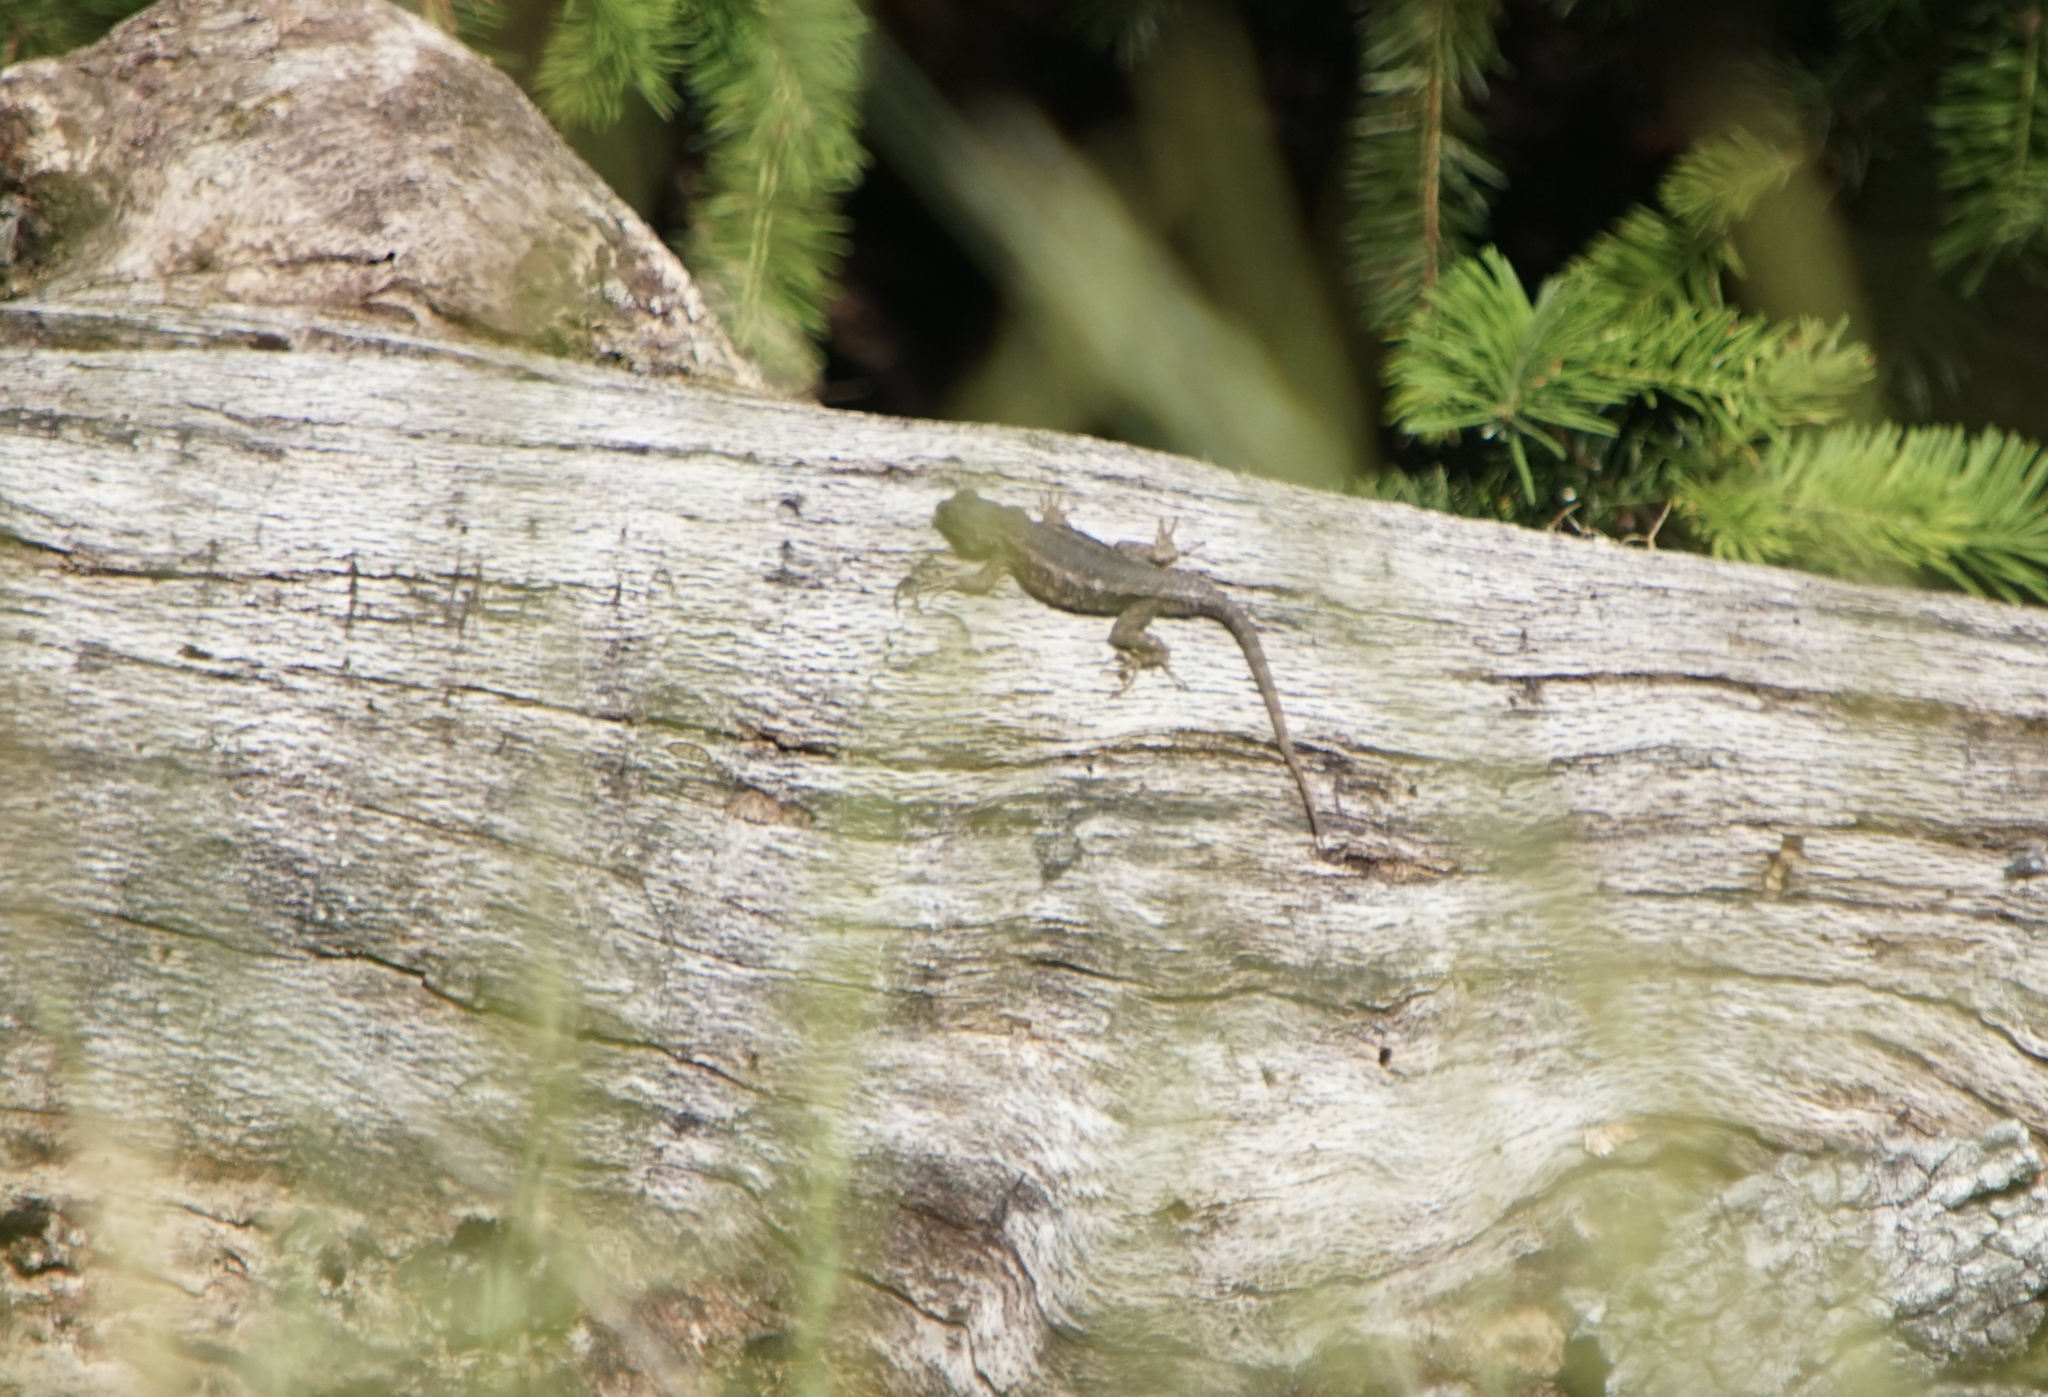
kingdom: Animalia
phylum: Chordata
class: Squamata
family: Phrynosomatidae
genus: Sceloporus
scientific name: Sceloporus occidentalis
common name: Western fence lizard
